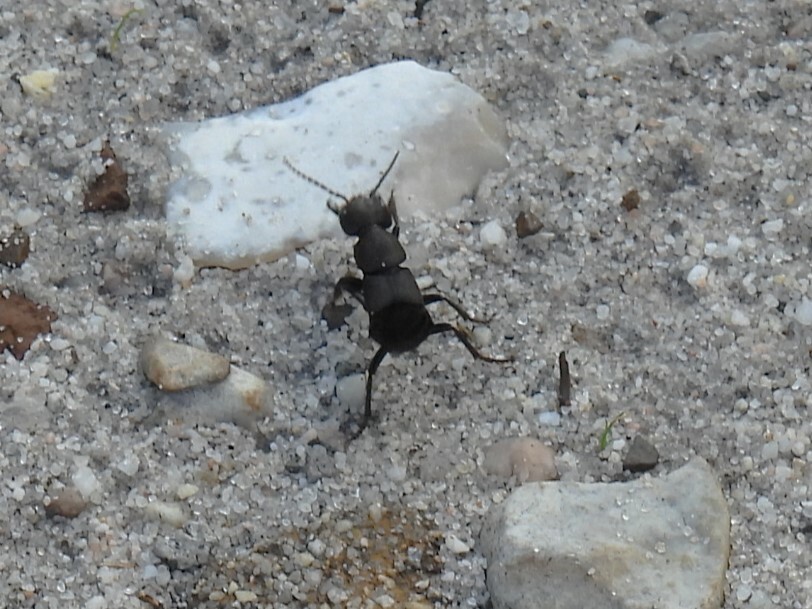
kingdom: Animalia
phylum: Arthropoda
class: Insecta
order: Coleoptera
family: Staphylinidae
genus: Ocypus
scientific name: Ocypus olens
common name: Devil's coach-horse
